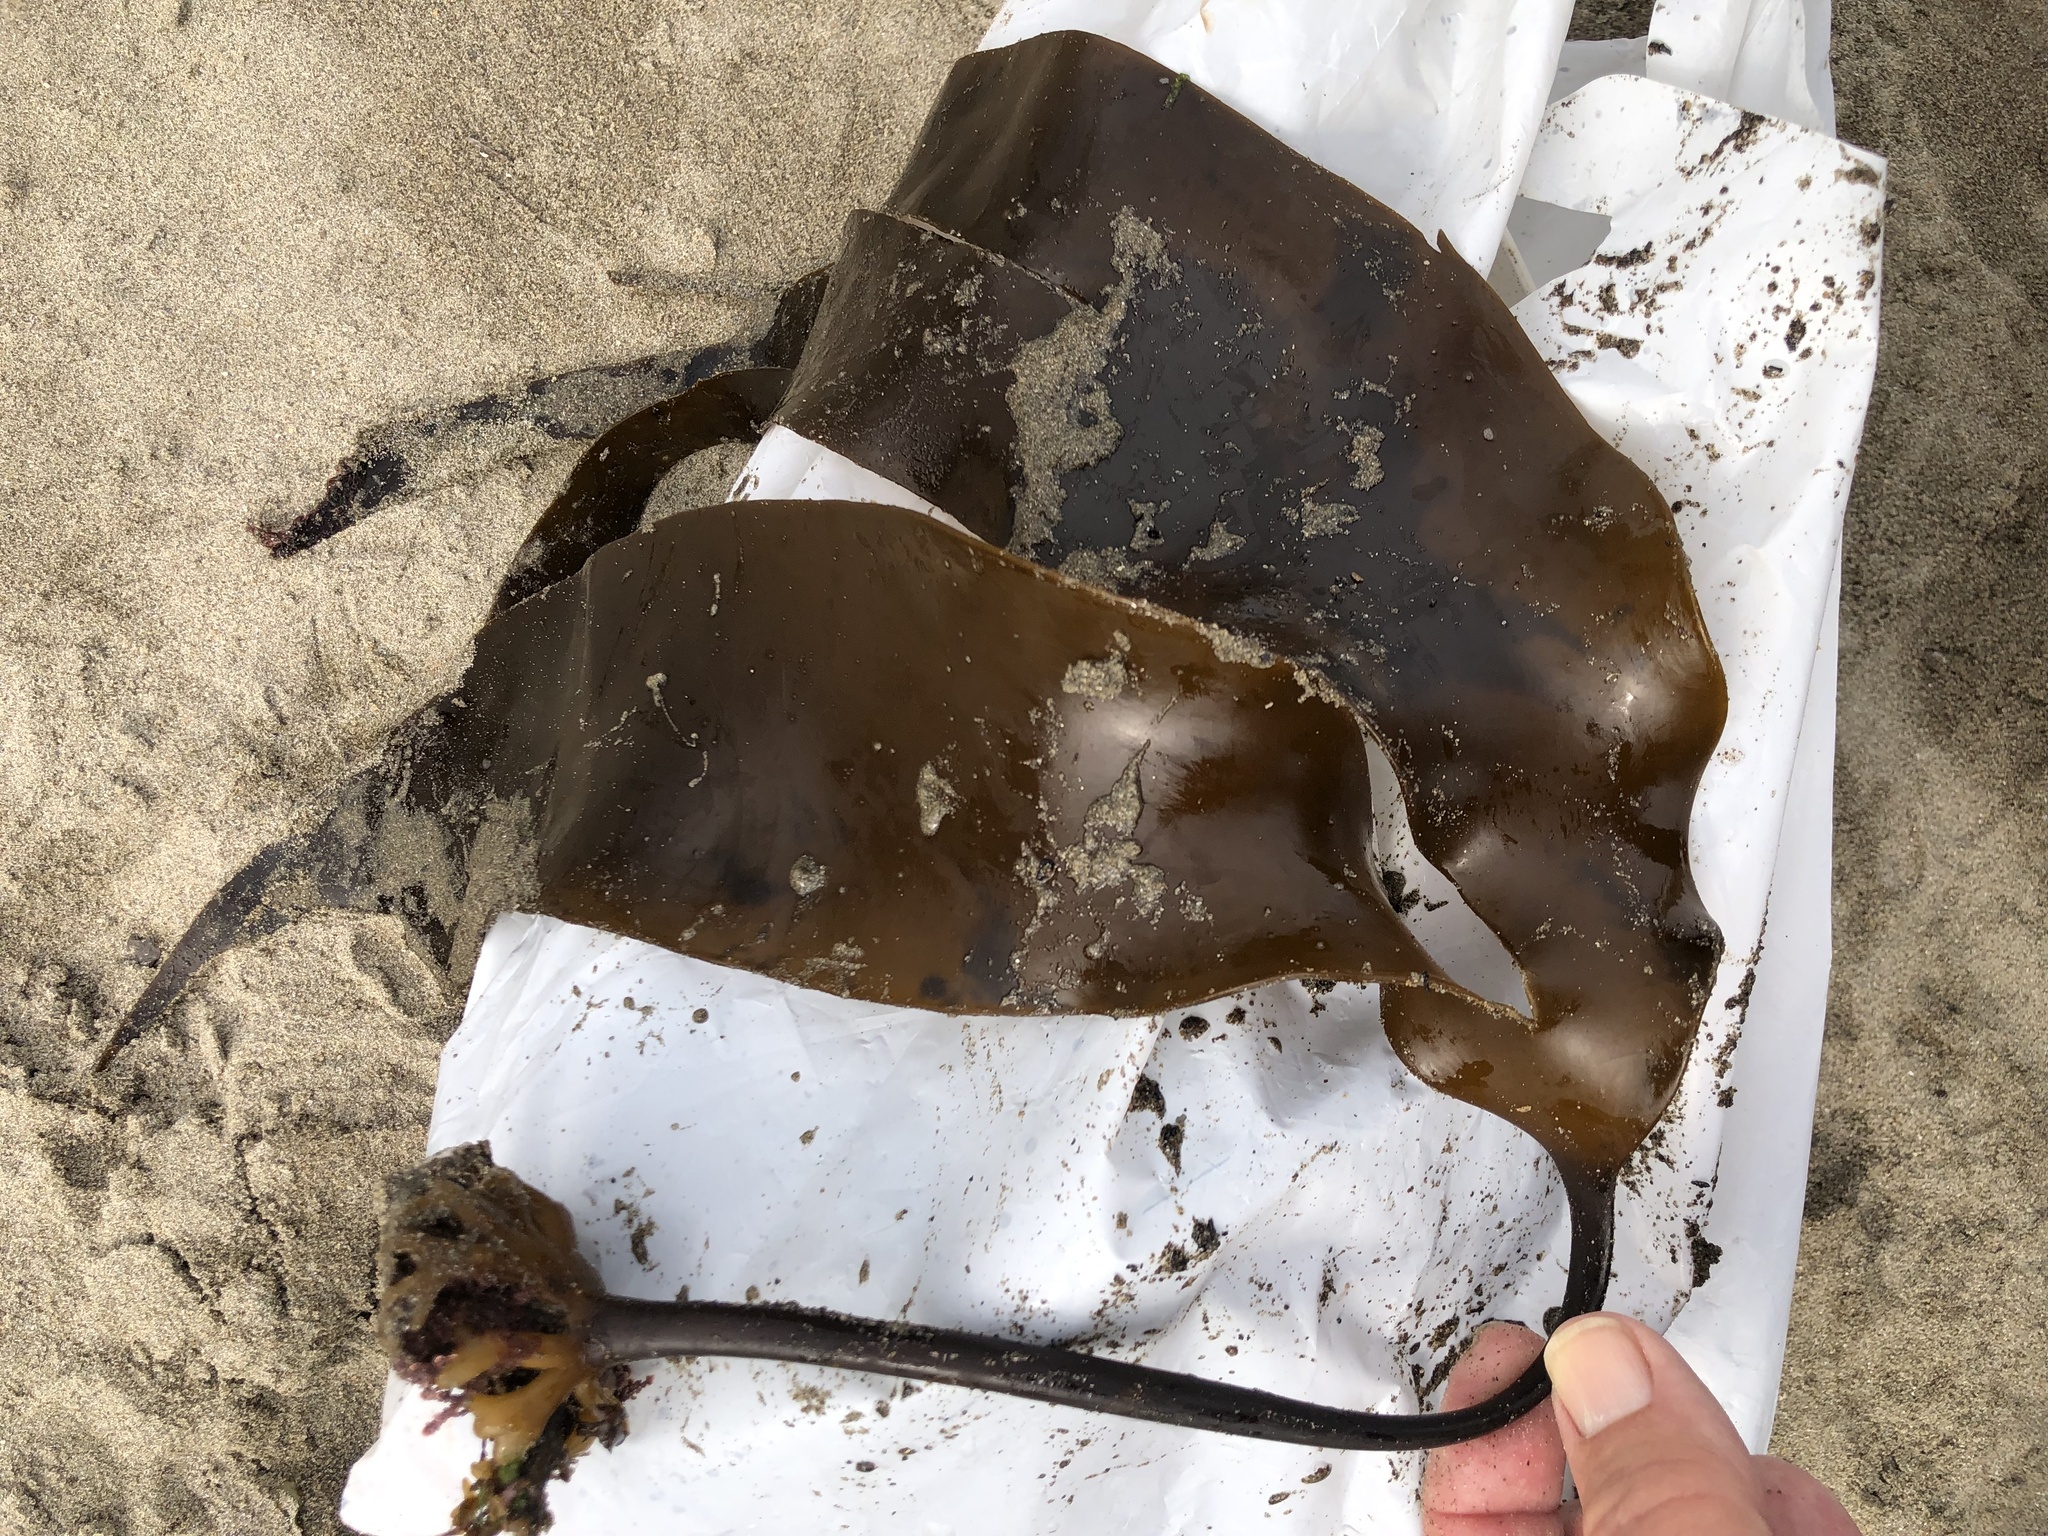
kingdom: Chromista
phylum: Ochrophyta
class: Phaeophyceae
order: Laminariales
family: Laminariaceae
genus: Laminaria
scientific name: Laminaria setchellii
